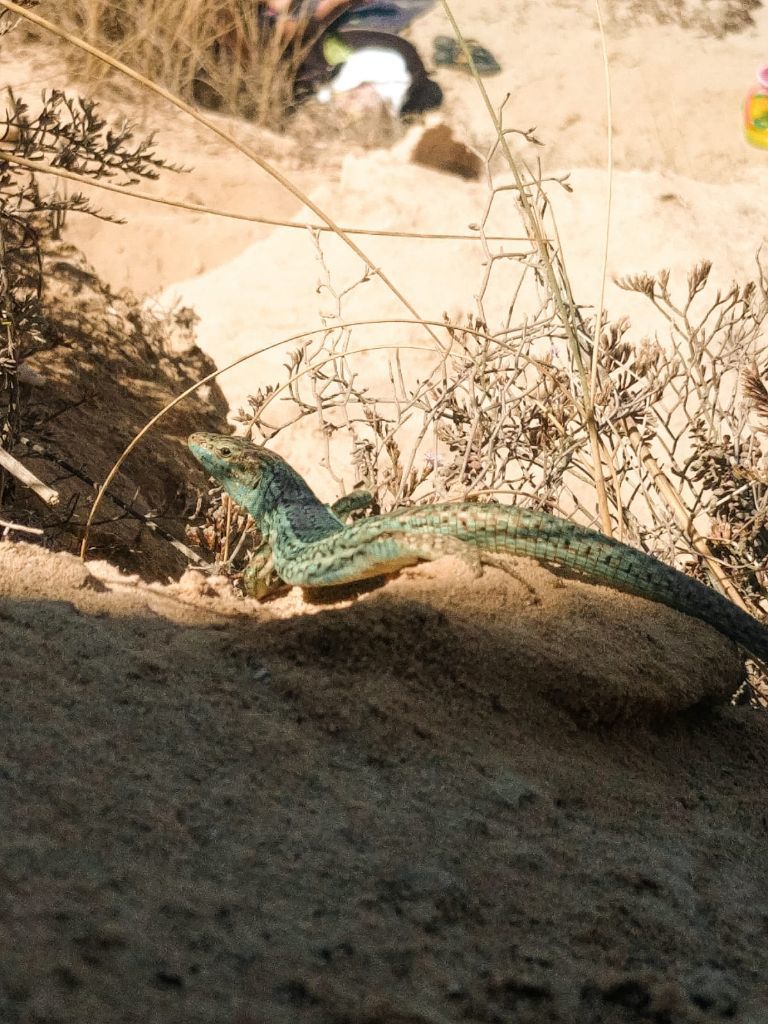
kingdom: Animalia
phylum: Chordata
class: Squamata
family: Lacertidae
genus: Podarcis
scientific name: Podarcis pityusensis
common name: Ibiza wall lizard
